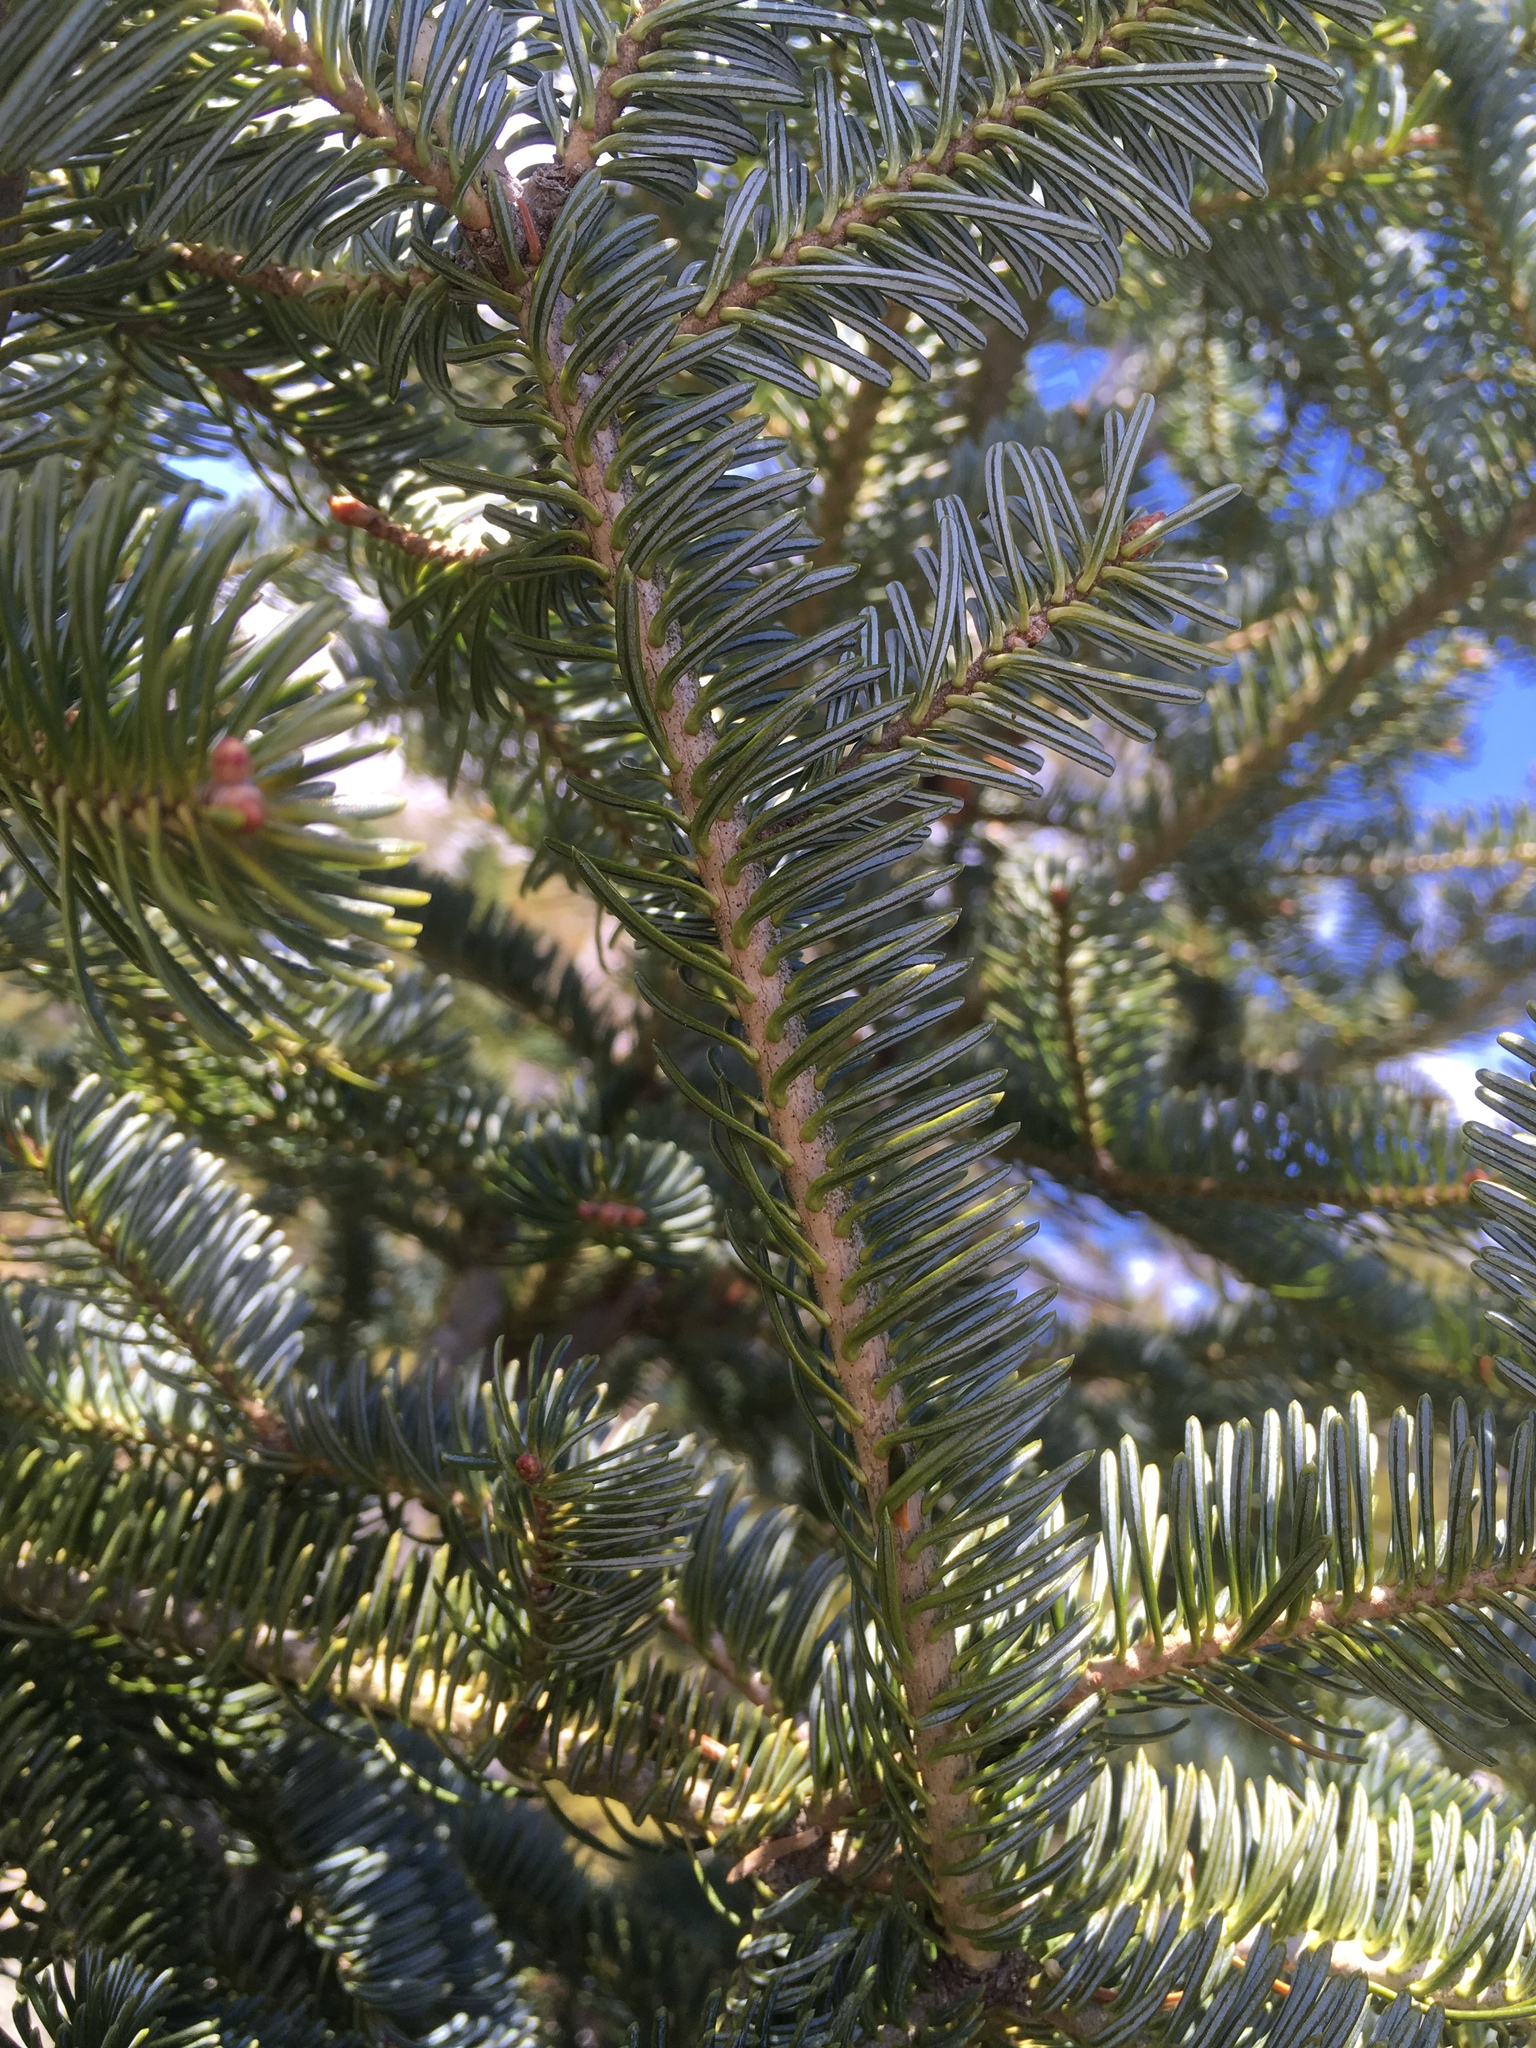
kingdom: Plantae
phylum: Tracheophyta
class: Pinopsida
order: Pinales
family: Pinaceae
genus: Abies
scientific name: Abies balsamea
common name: Balsam fir
